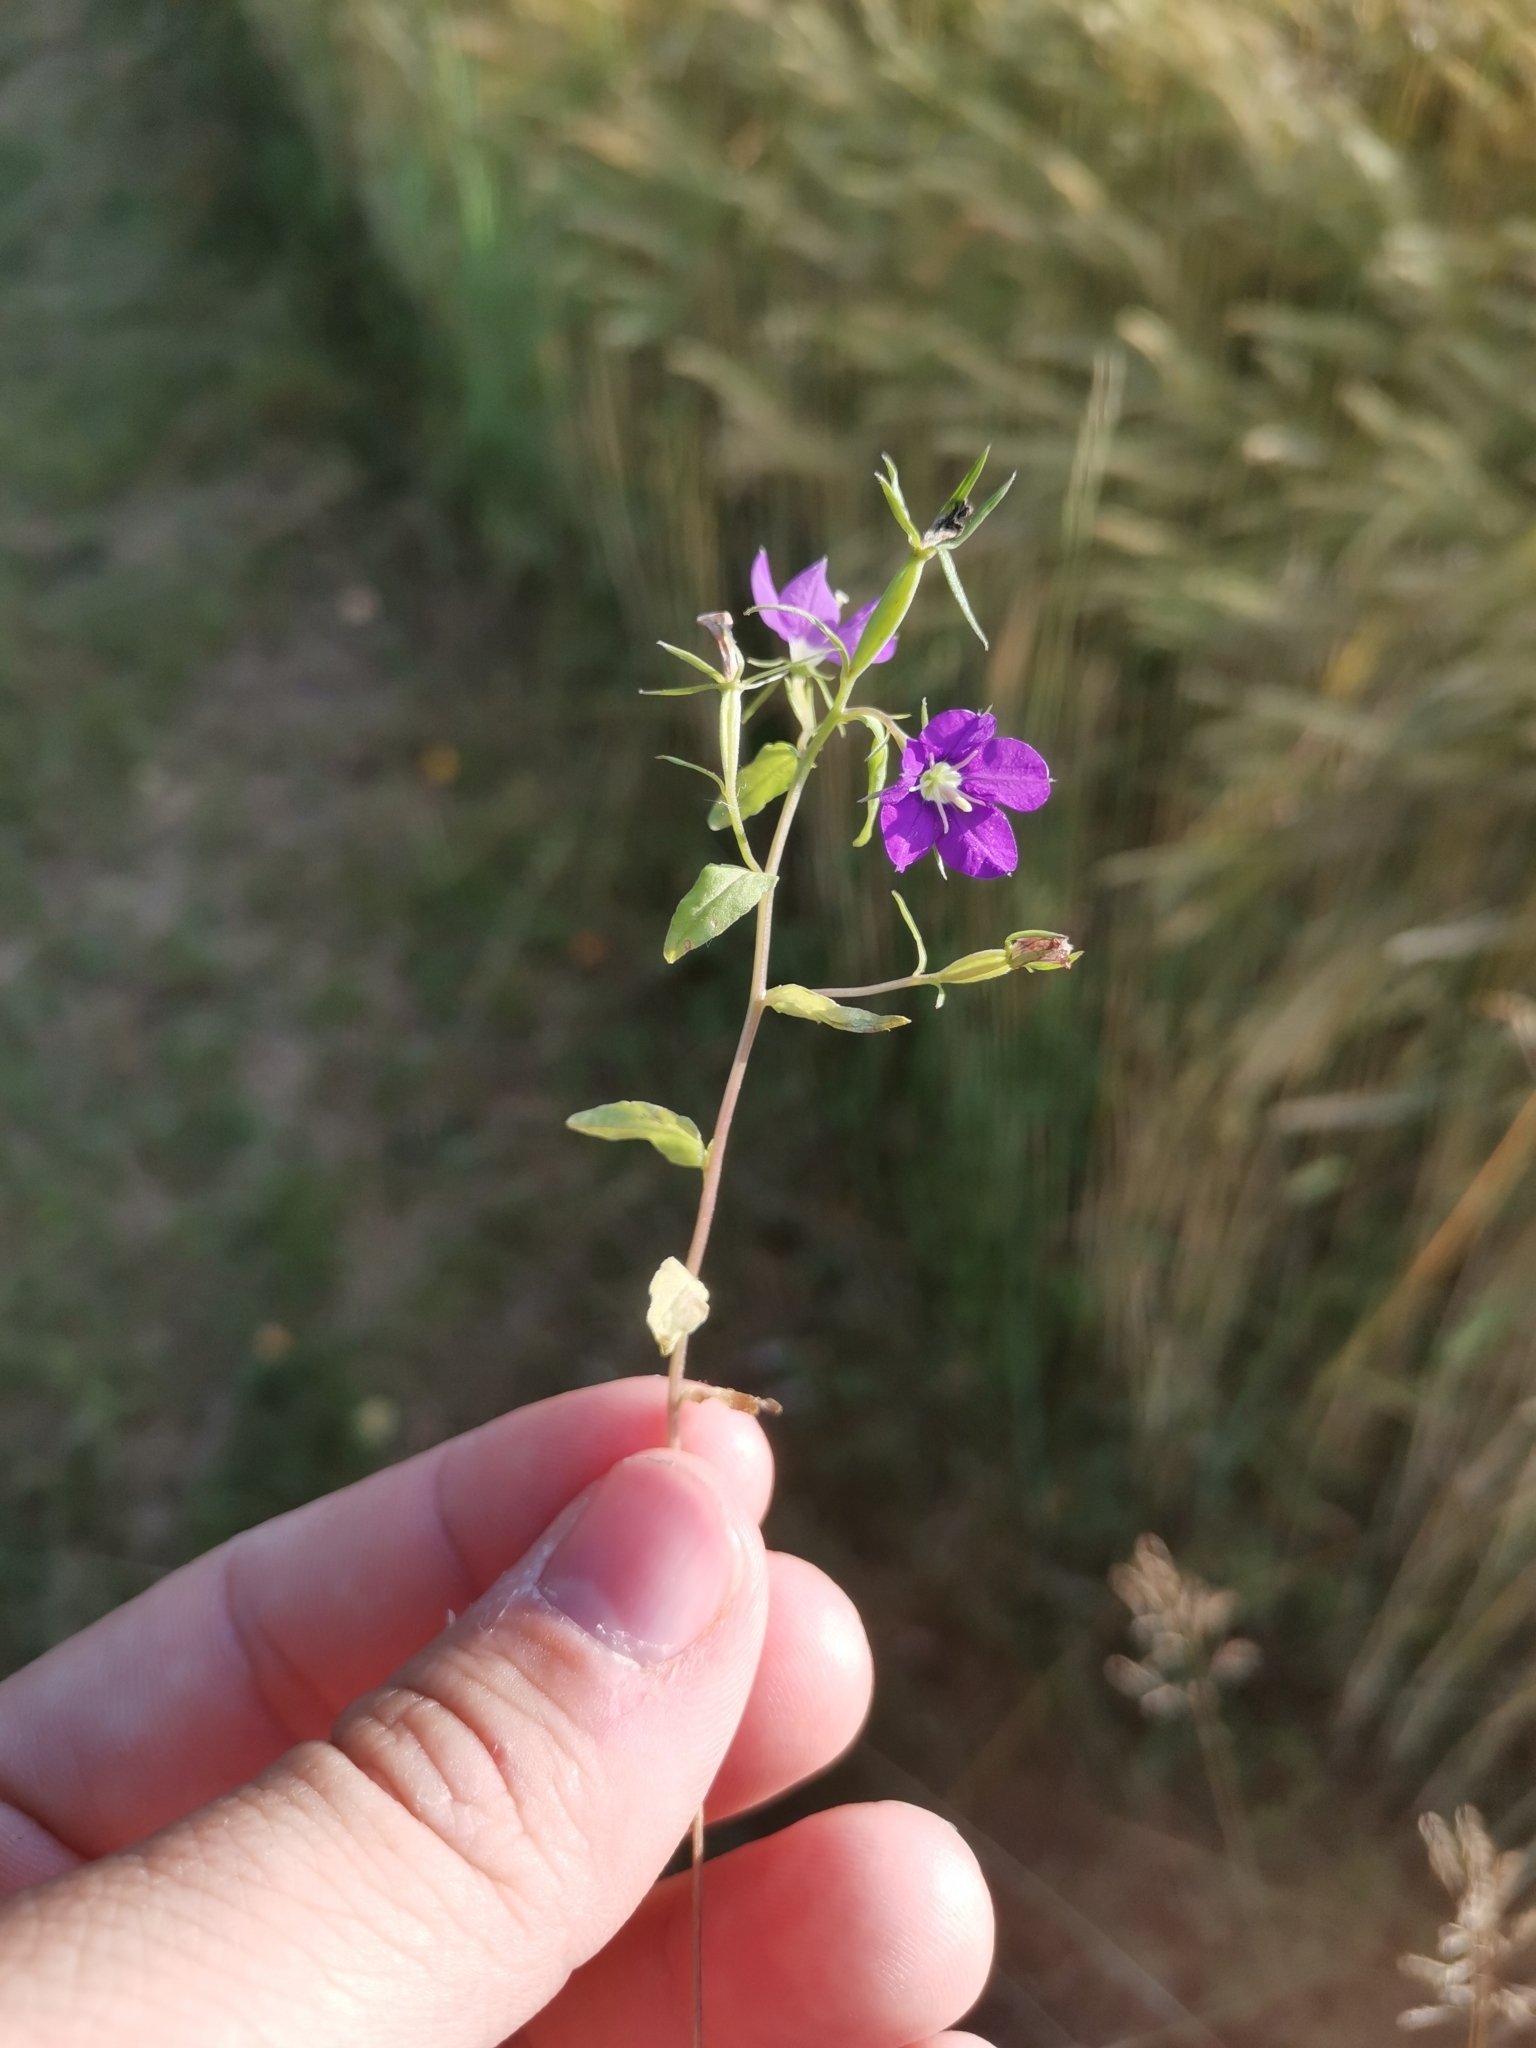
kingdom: Plantae
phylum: Tracheophyta
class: Magnoliopsida
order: Asterales
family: Campanulaceae
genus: Legousia
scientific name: Legousia speculum-veneris
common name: Large venus's-looking-glass
